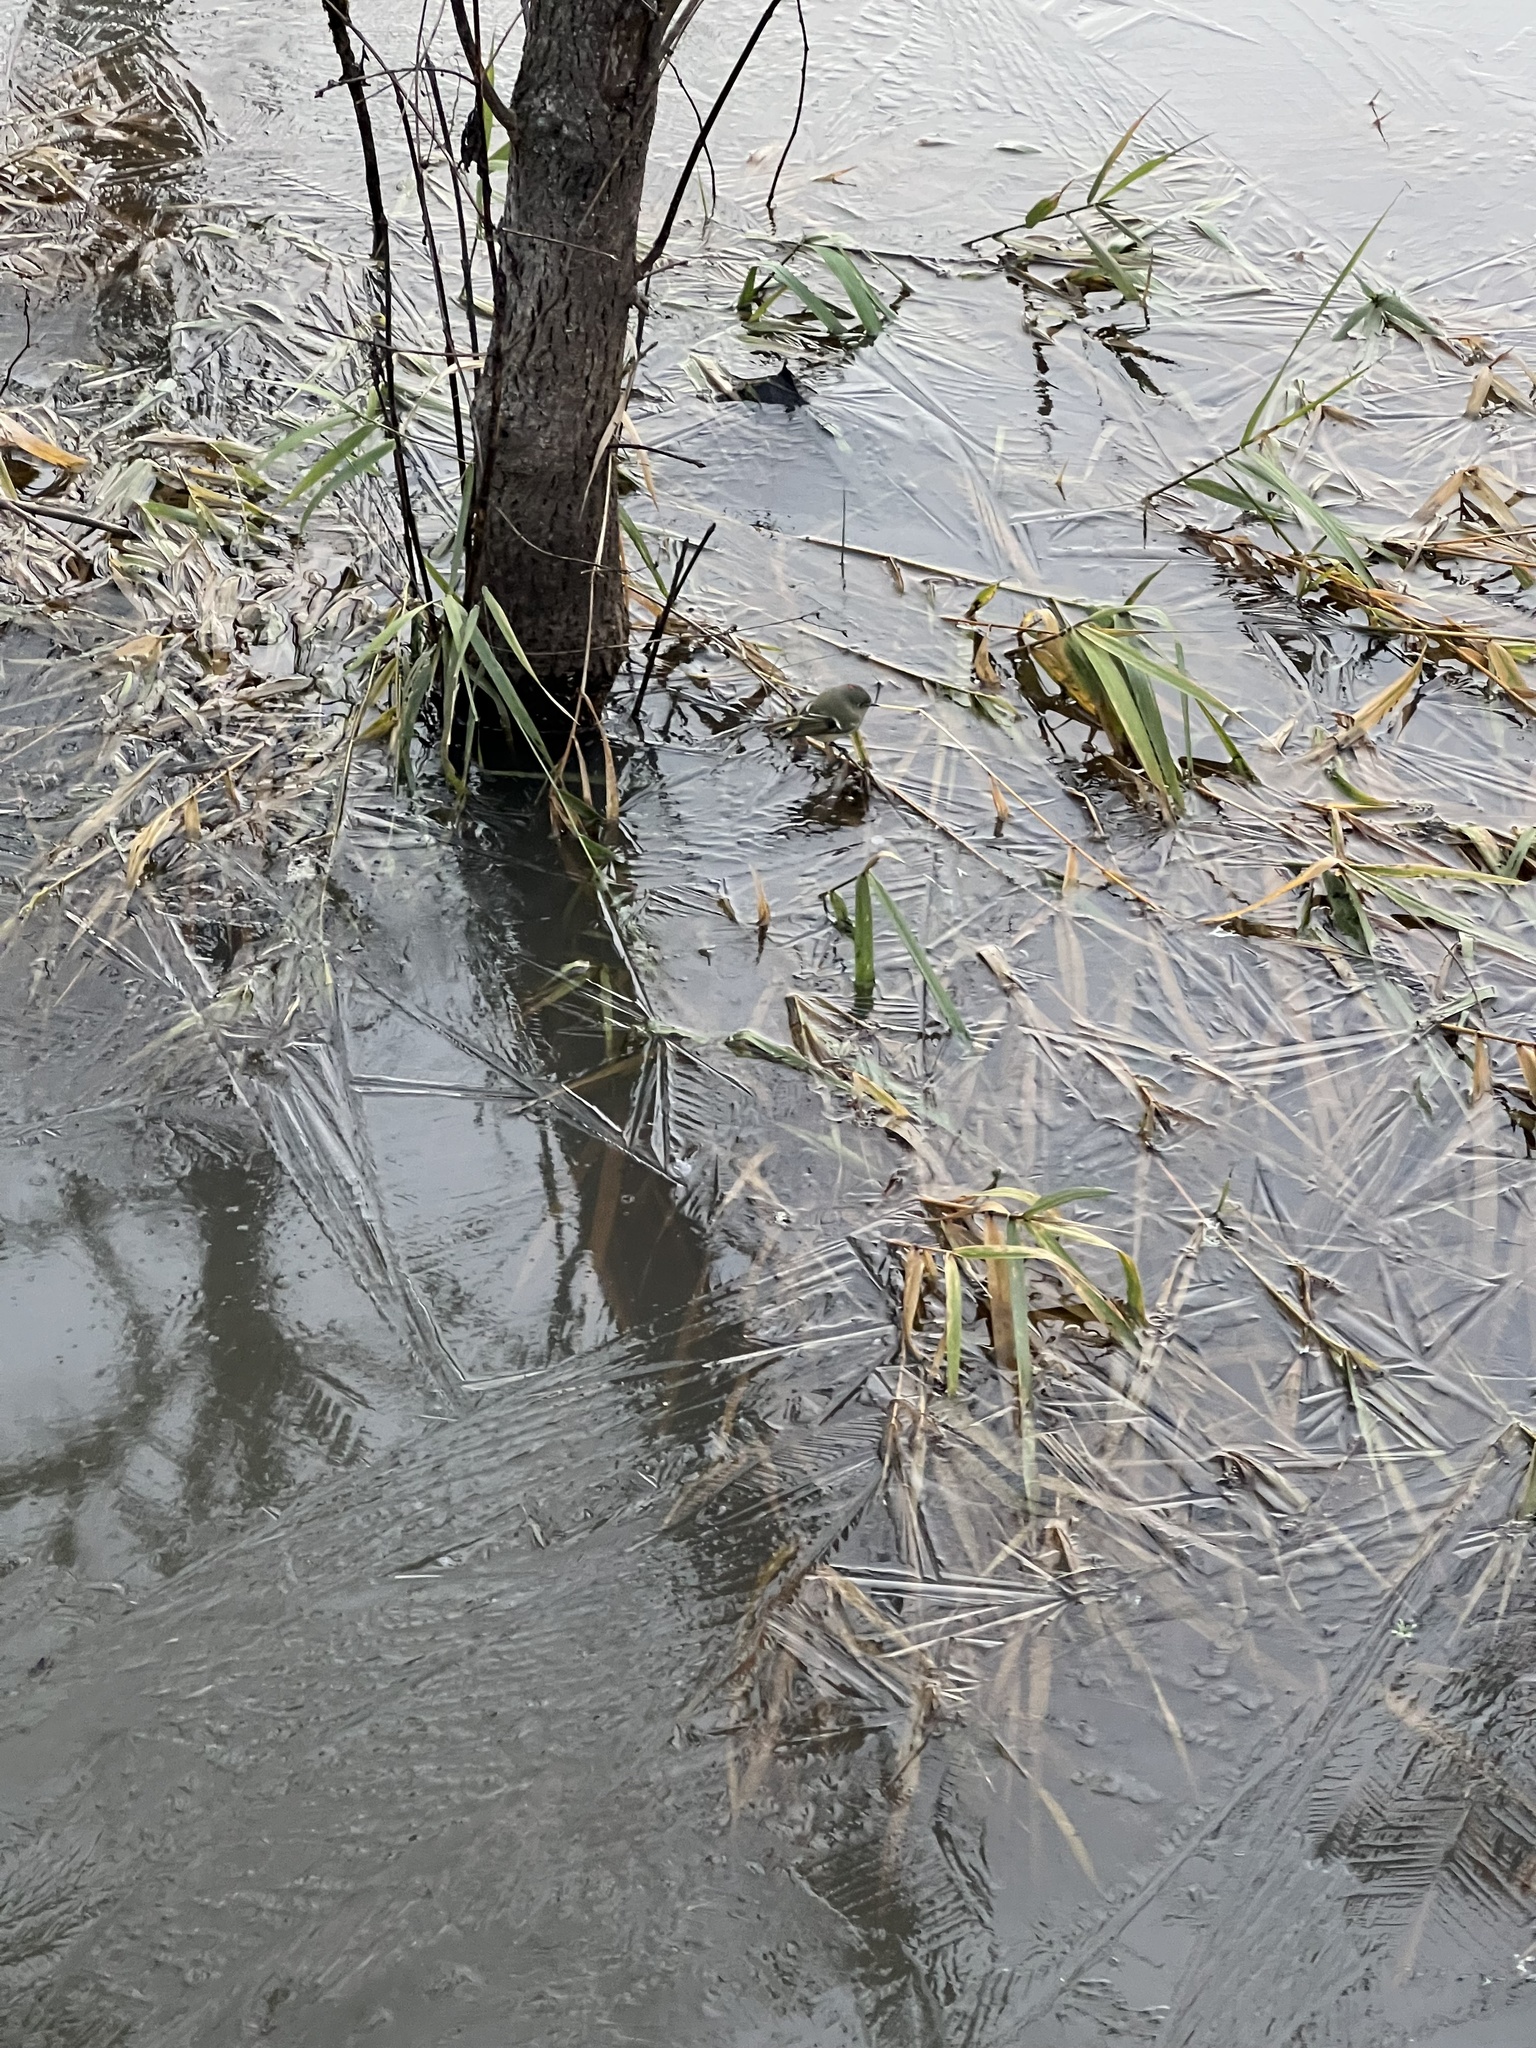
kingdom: Animalia
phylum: Chordata
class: Aves
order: Passeriformes
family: Regulidae
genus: Regulus
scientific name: Regulus calendula
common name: Ruby-crowned kinglet
